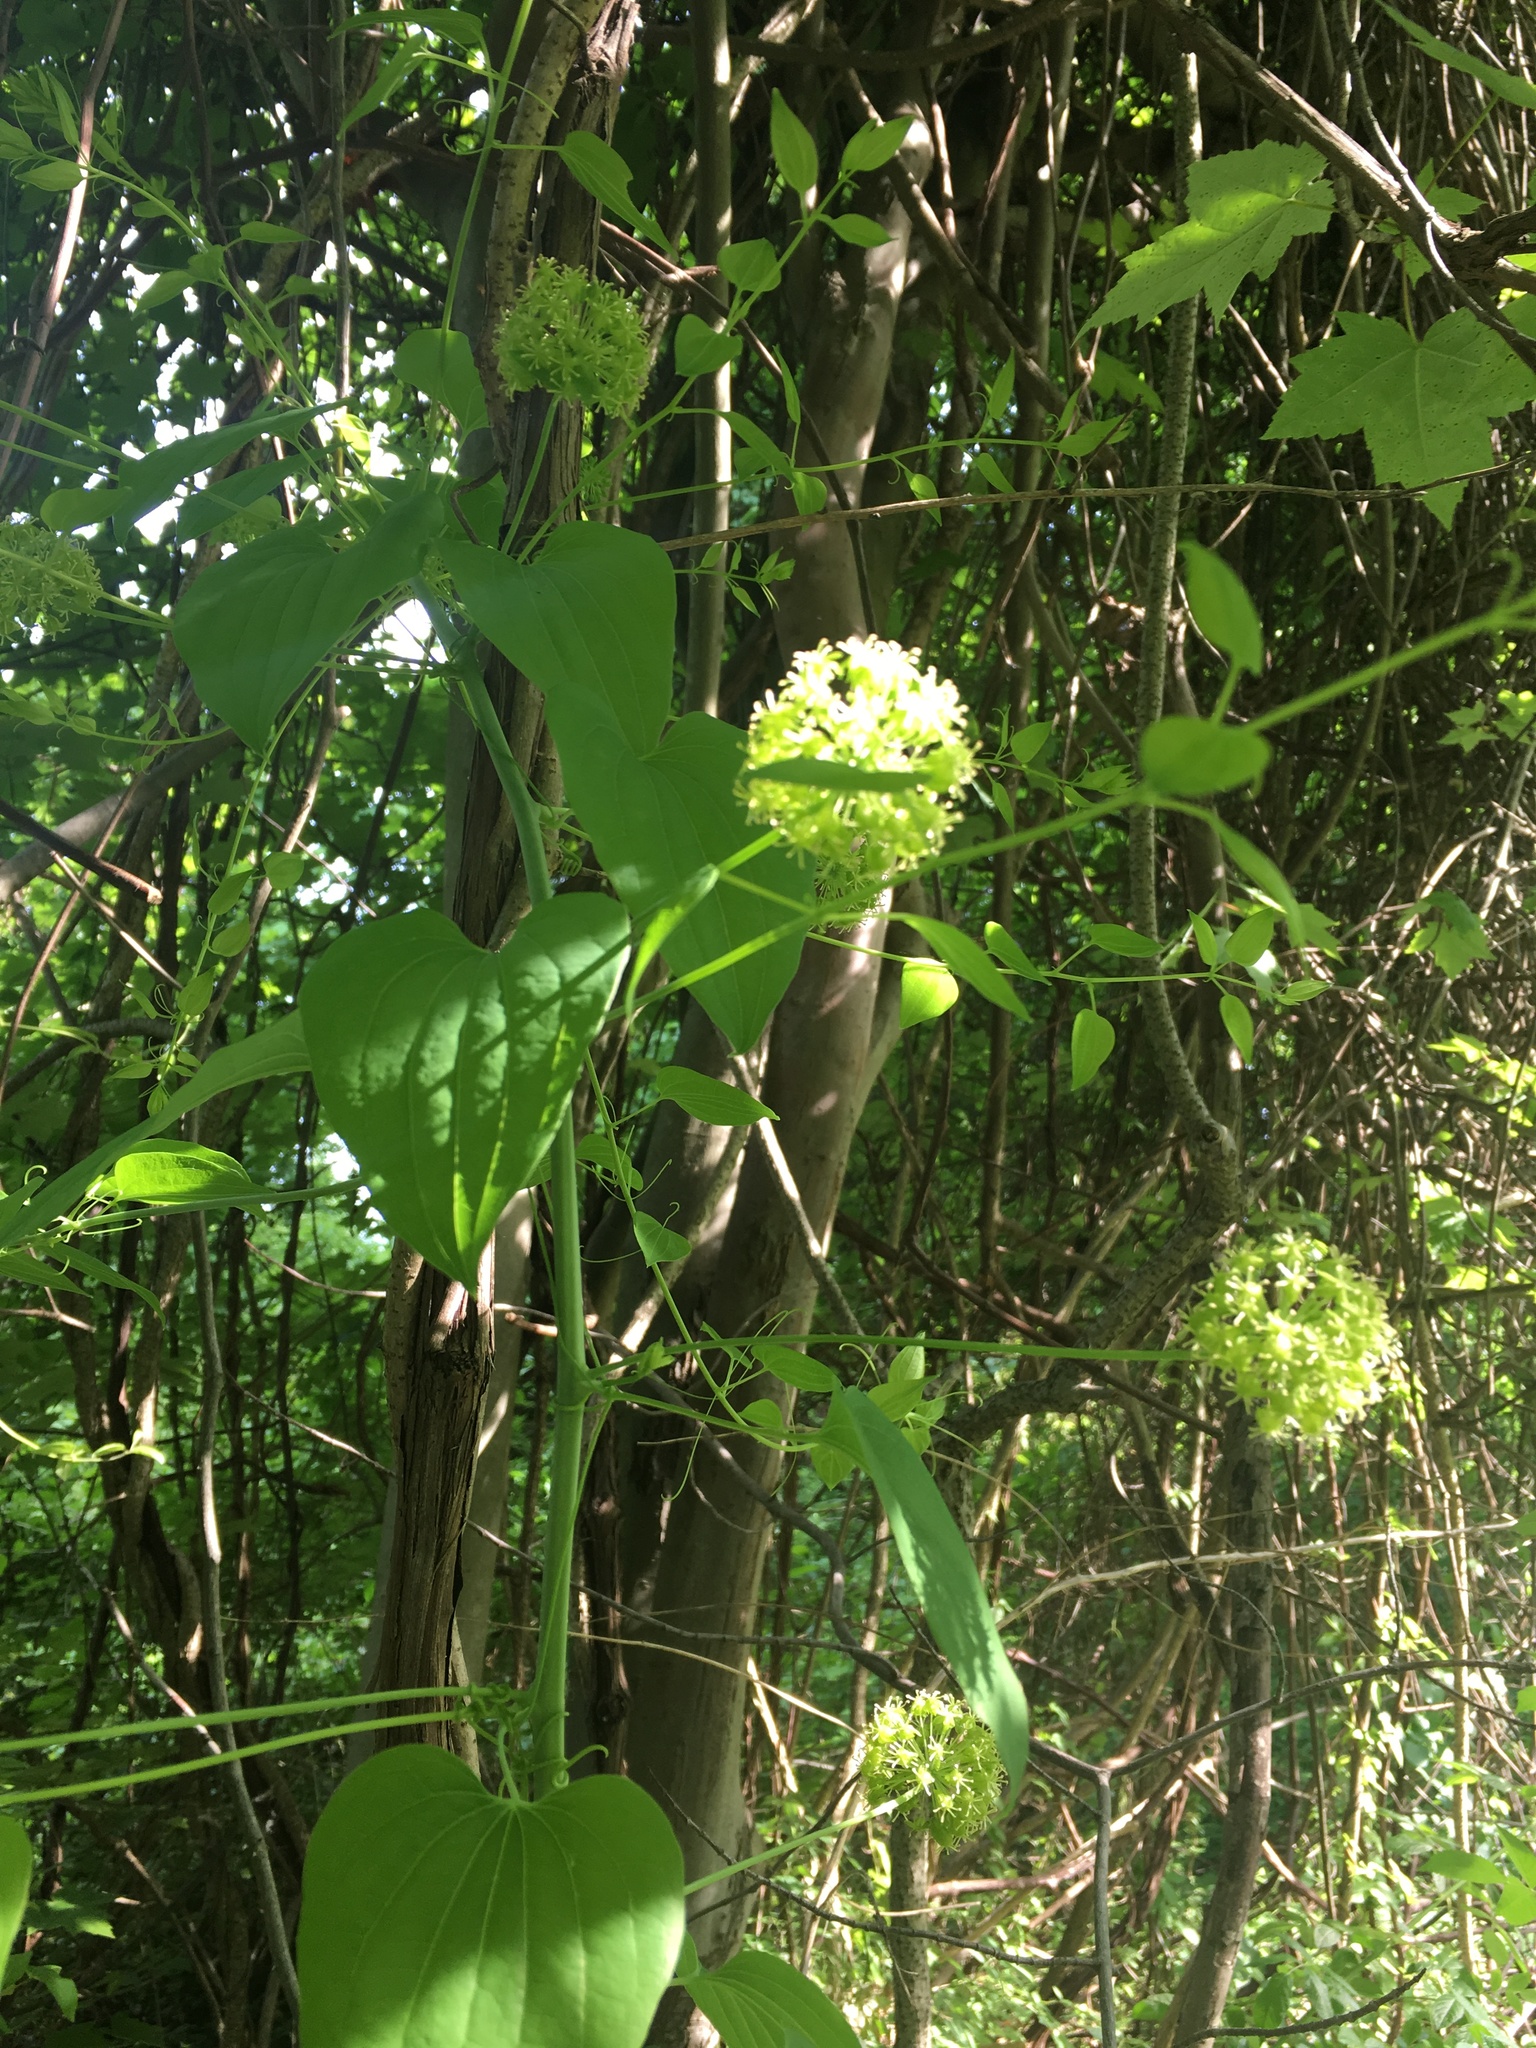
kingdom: Plantae
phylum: Tracheophyta
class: Liliopsida
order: Liliales
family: Smilacaceae
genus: Smilax
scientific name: Smilax herbacea
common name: Jacob's-ladder
